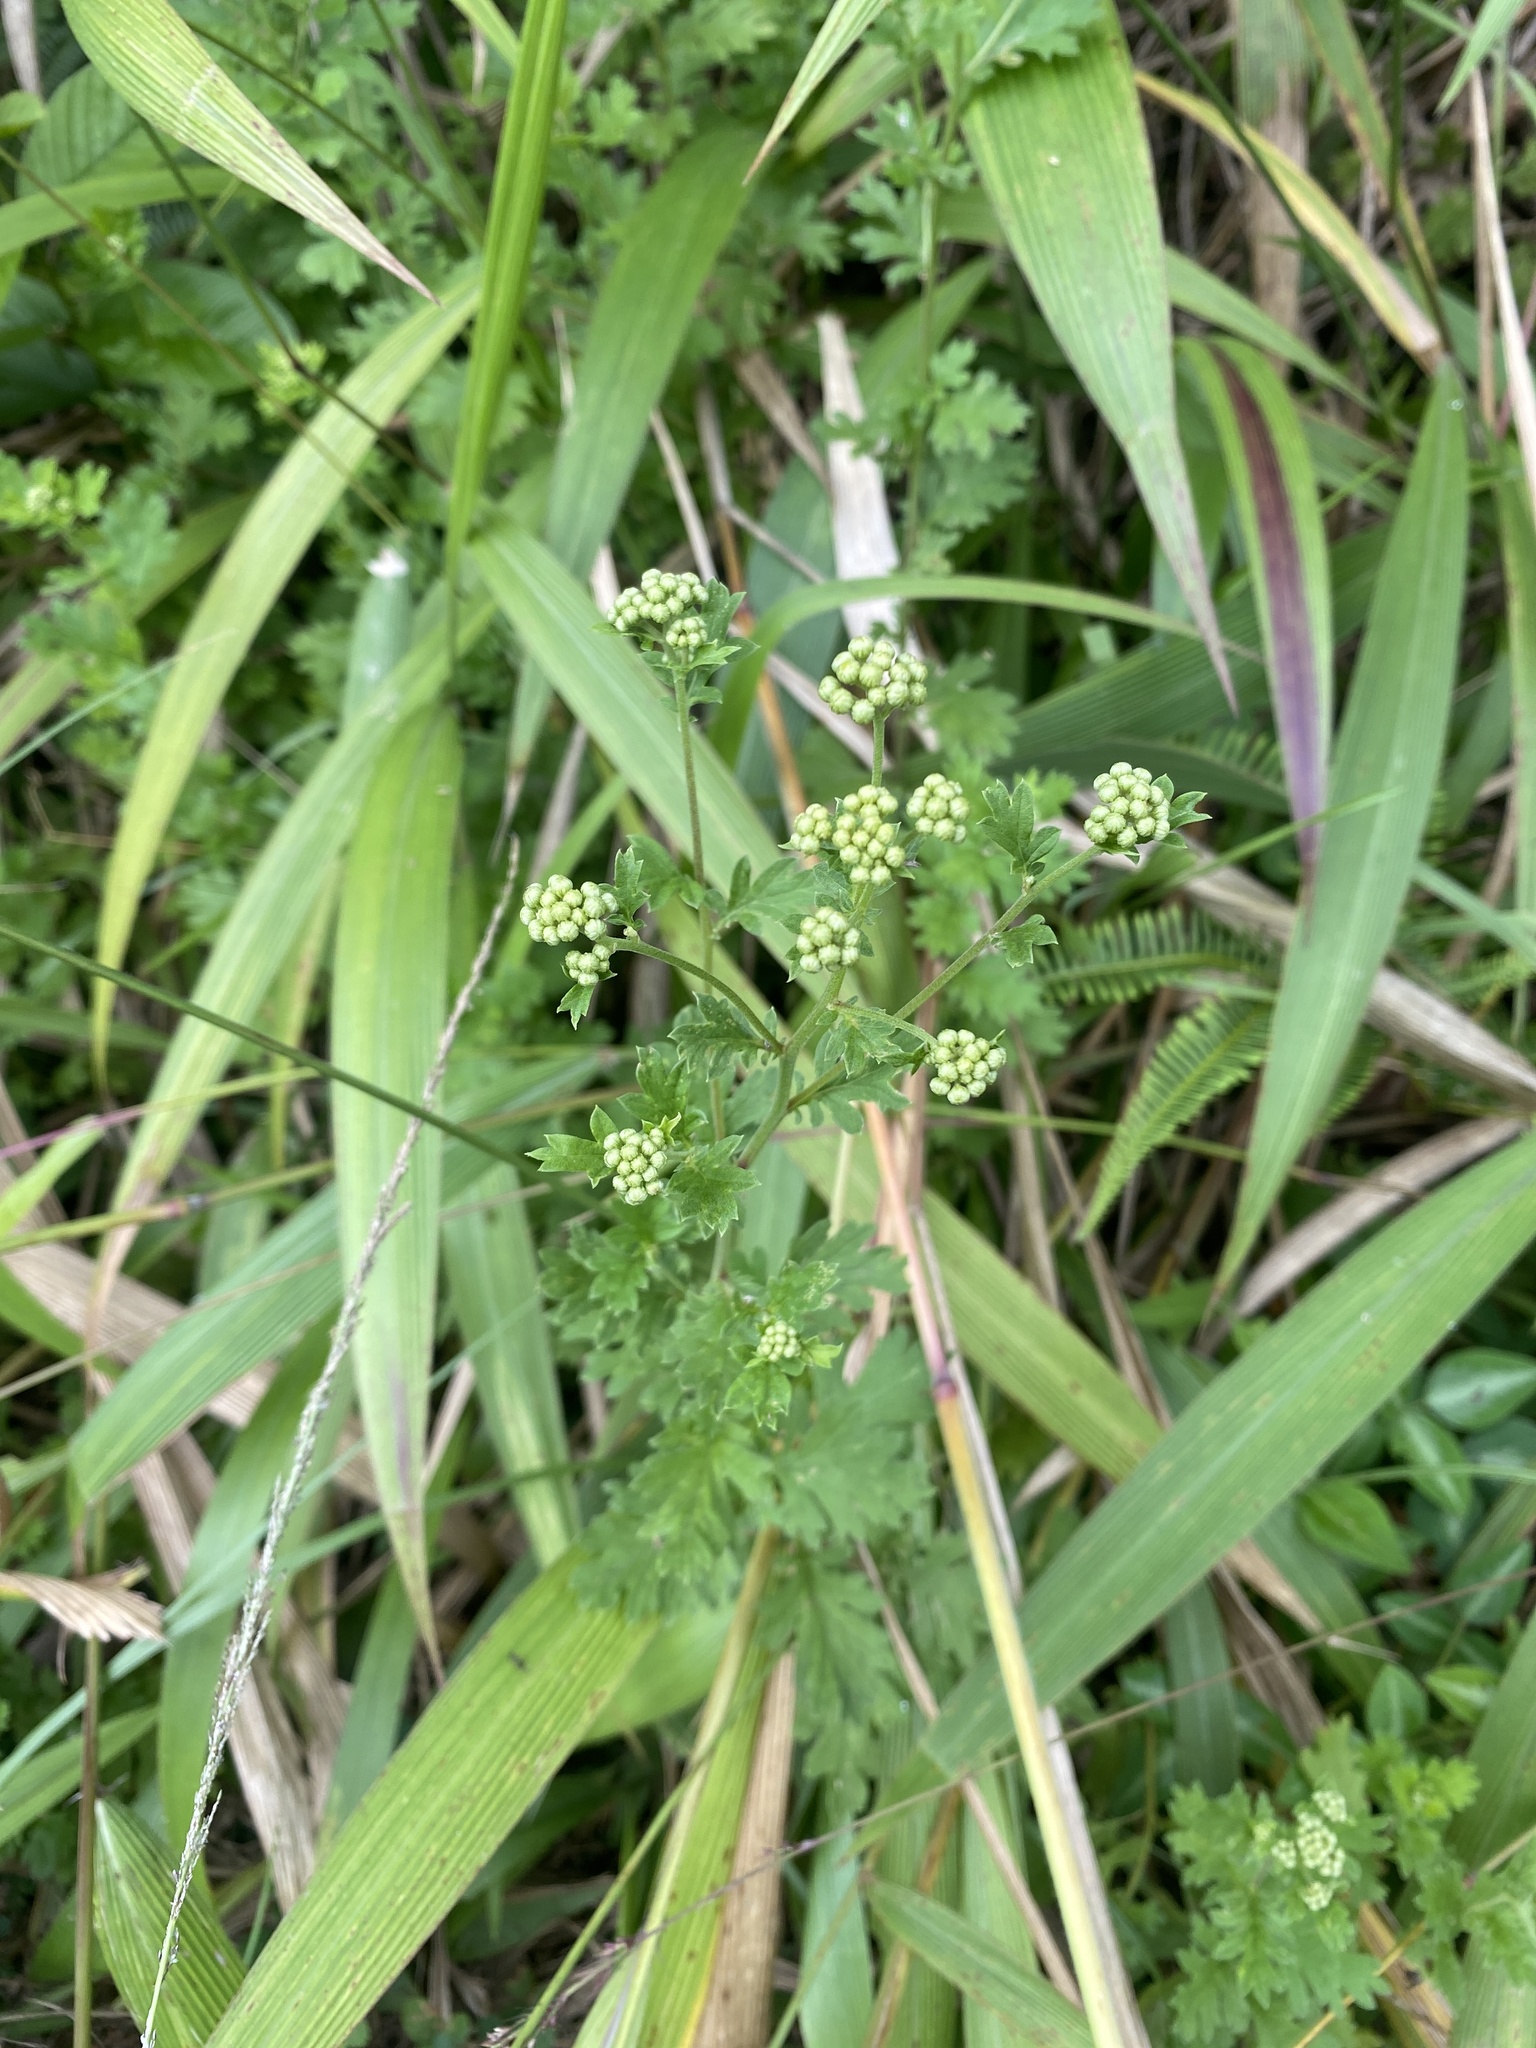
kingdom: Plantae
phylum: Tracheophyta
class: Magnoliopsida
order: Apiales
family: Apiaceae
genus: Petroselinum
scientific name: Petroselinum crispum
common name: Parsley
